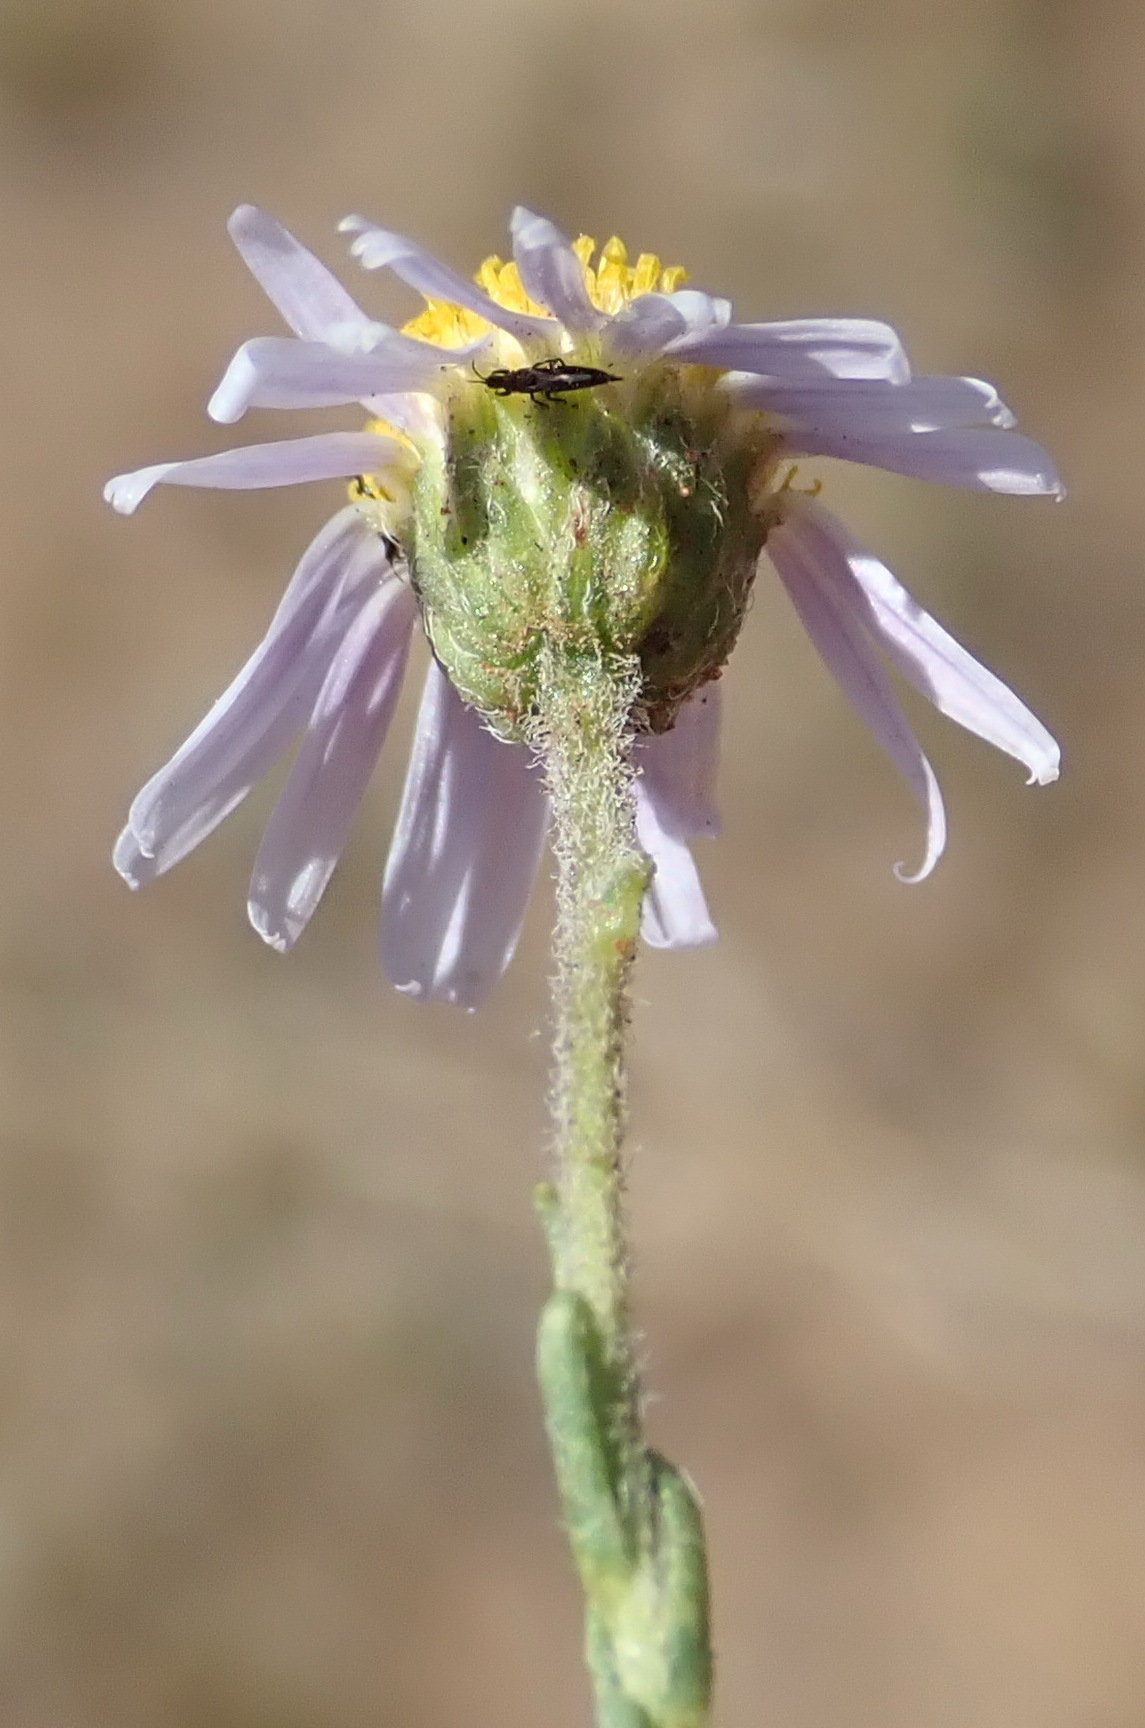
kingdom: Plantae
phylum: Tracheophyta
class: Magnoliopsida
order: Asterales
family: Asteraceae
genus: Felicia
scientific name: Felicia muricata
